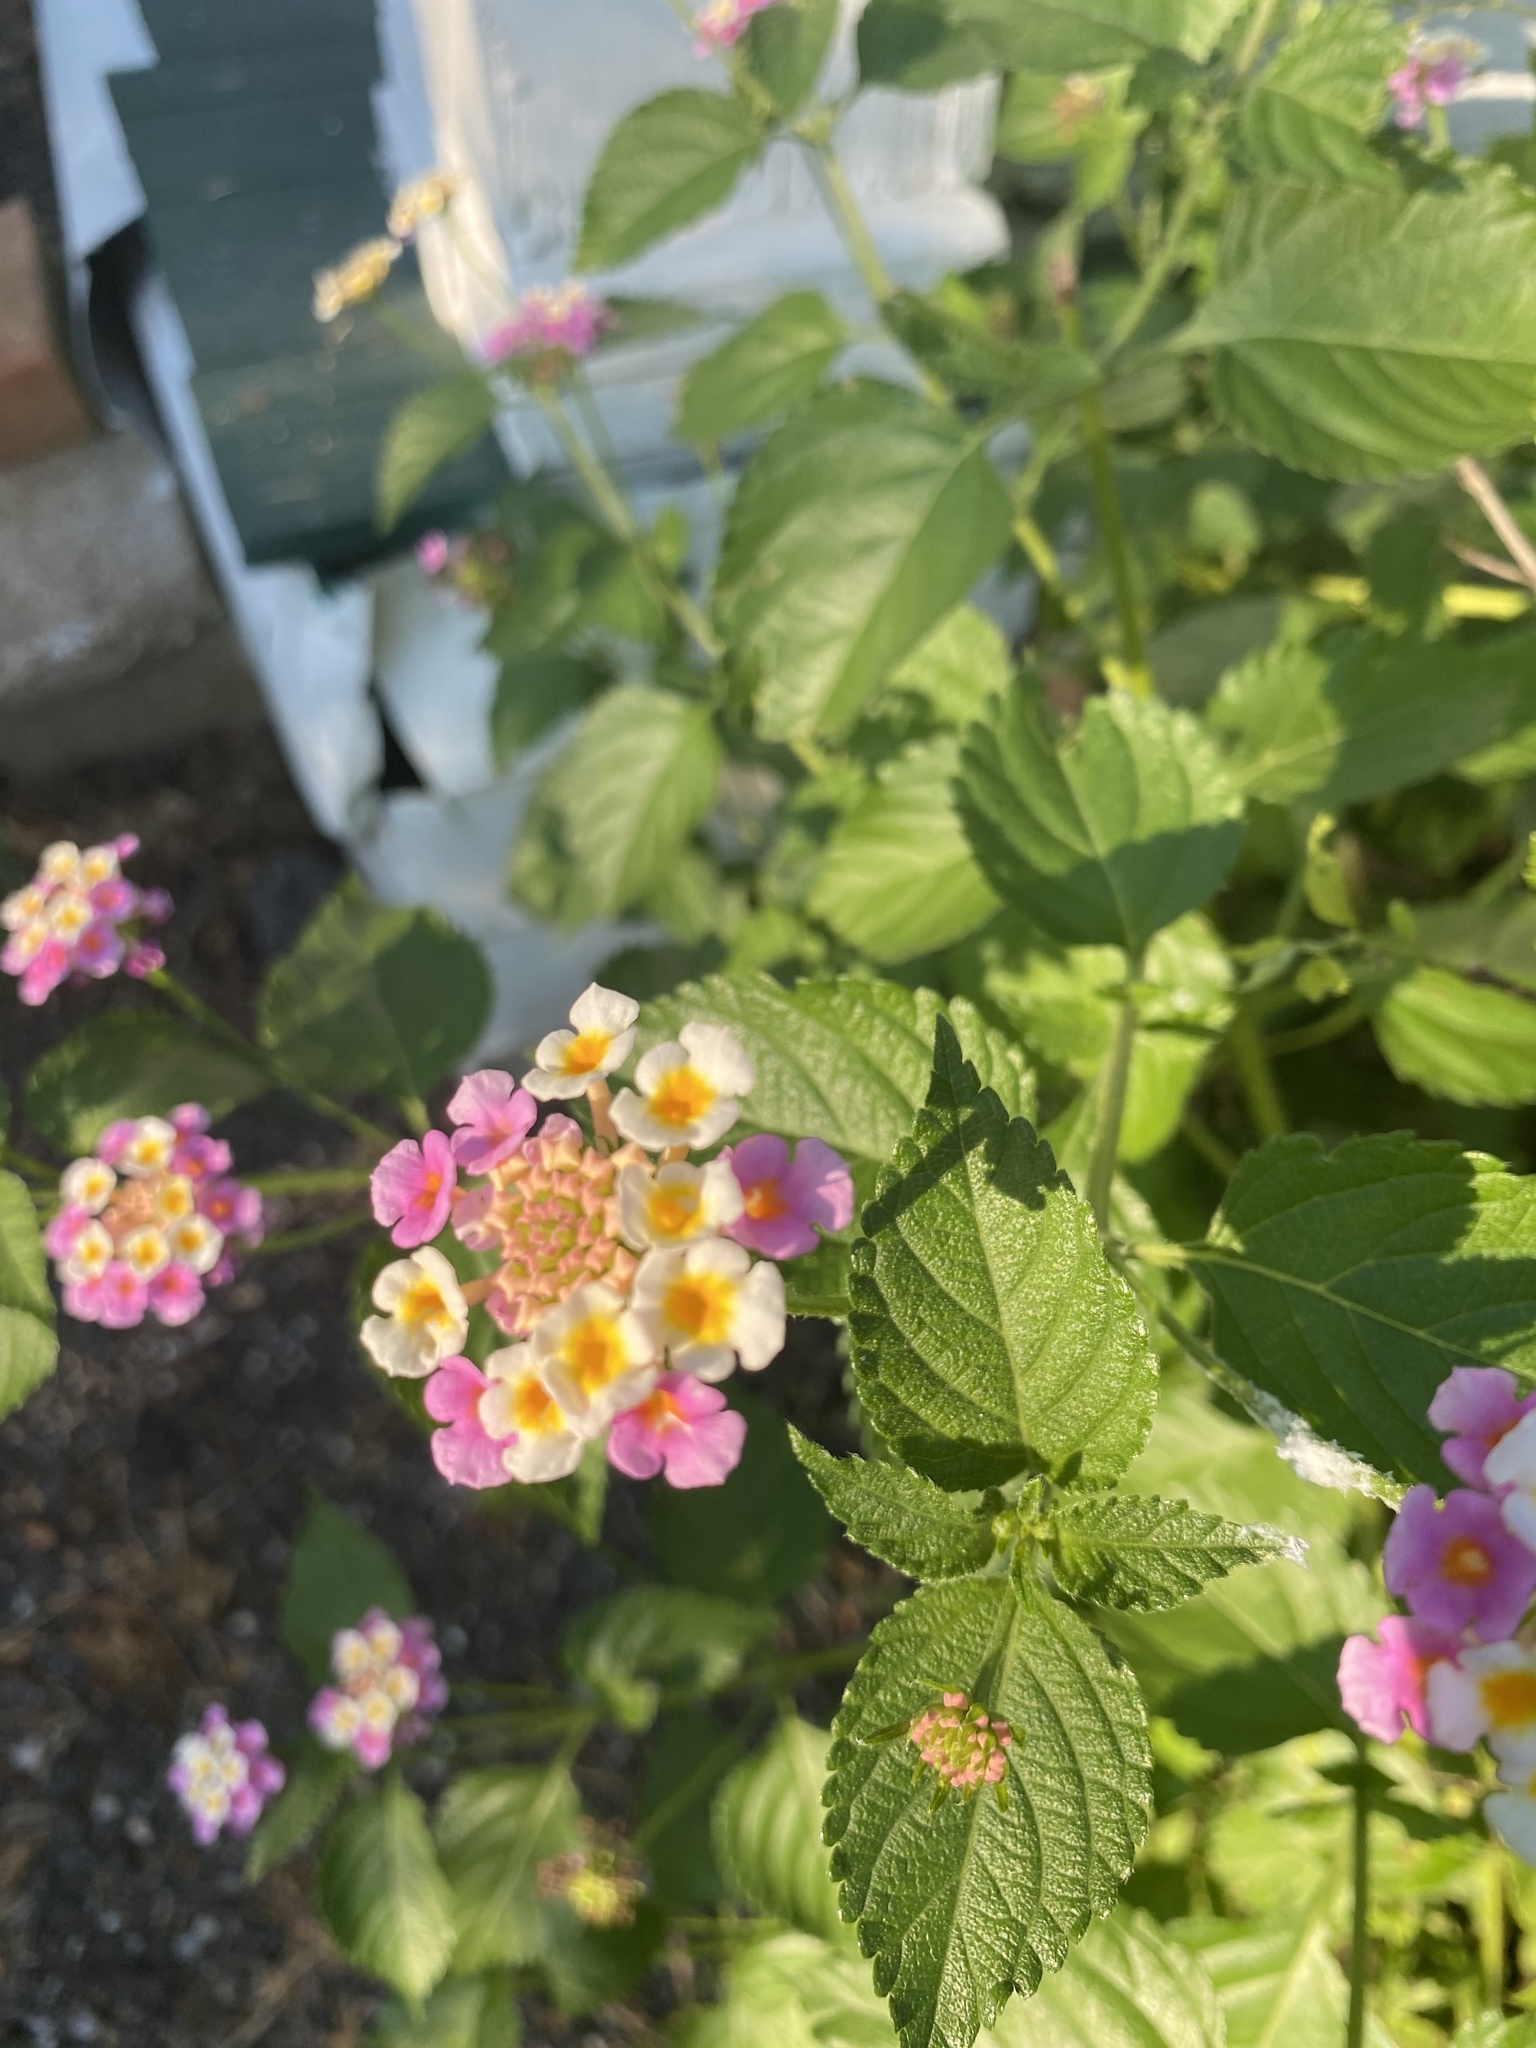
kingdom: Plantae
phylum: Tracheophyta
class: Magnoliopsida
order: Lamiales
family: Verbenaceae
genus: Lantana
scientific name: Lantana strigocamara
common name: Lantana
